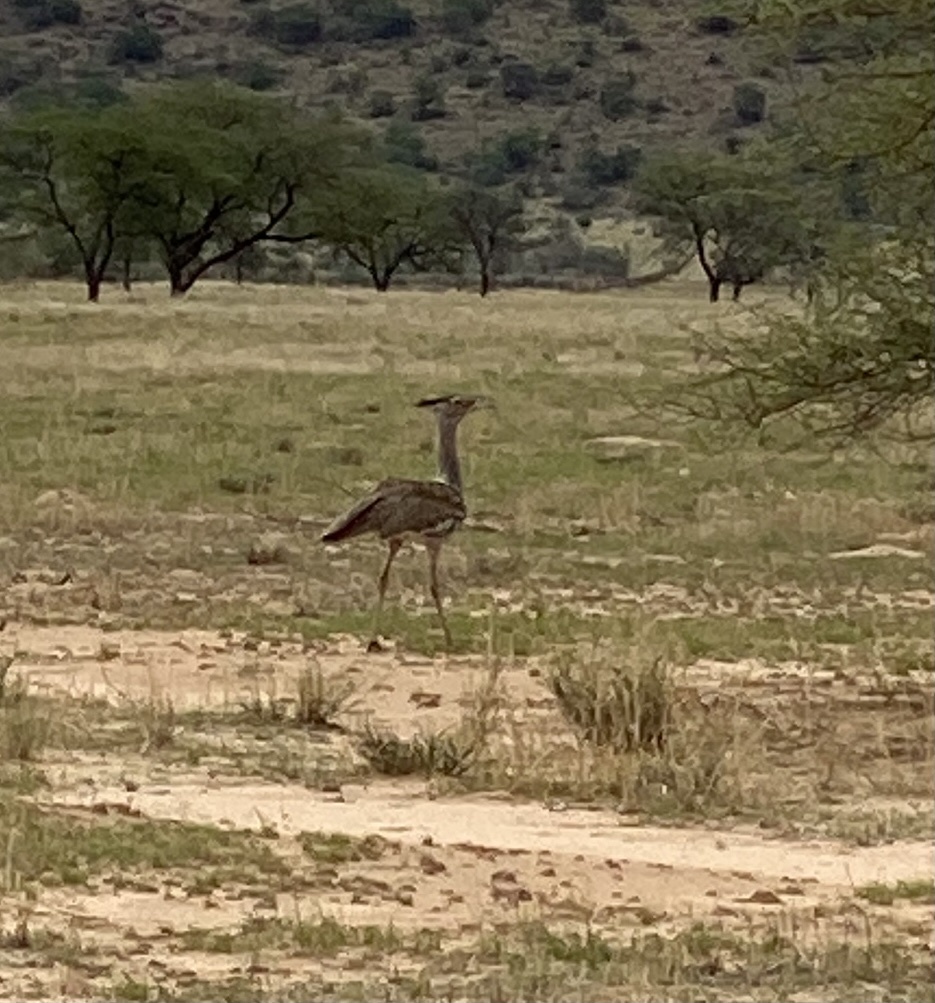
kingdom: Animalia
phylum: Chordata
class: Aves
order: Otidiformes
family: Otididae
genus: Ardeotis
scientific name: Ardeotis kori
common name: Kori bustard
